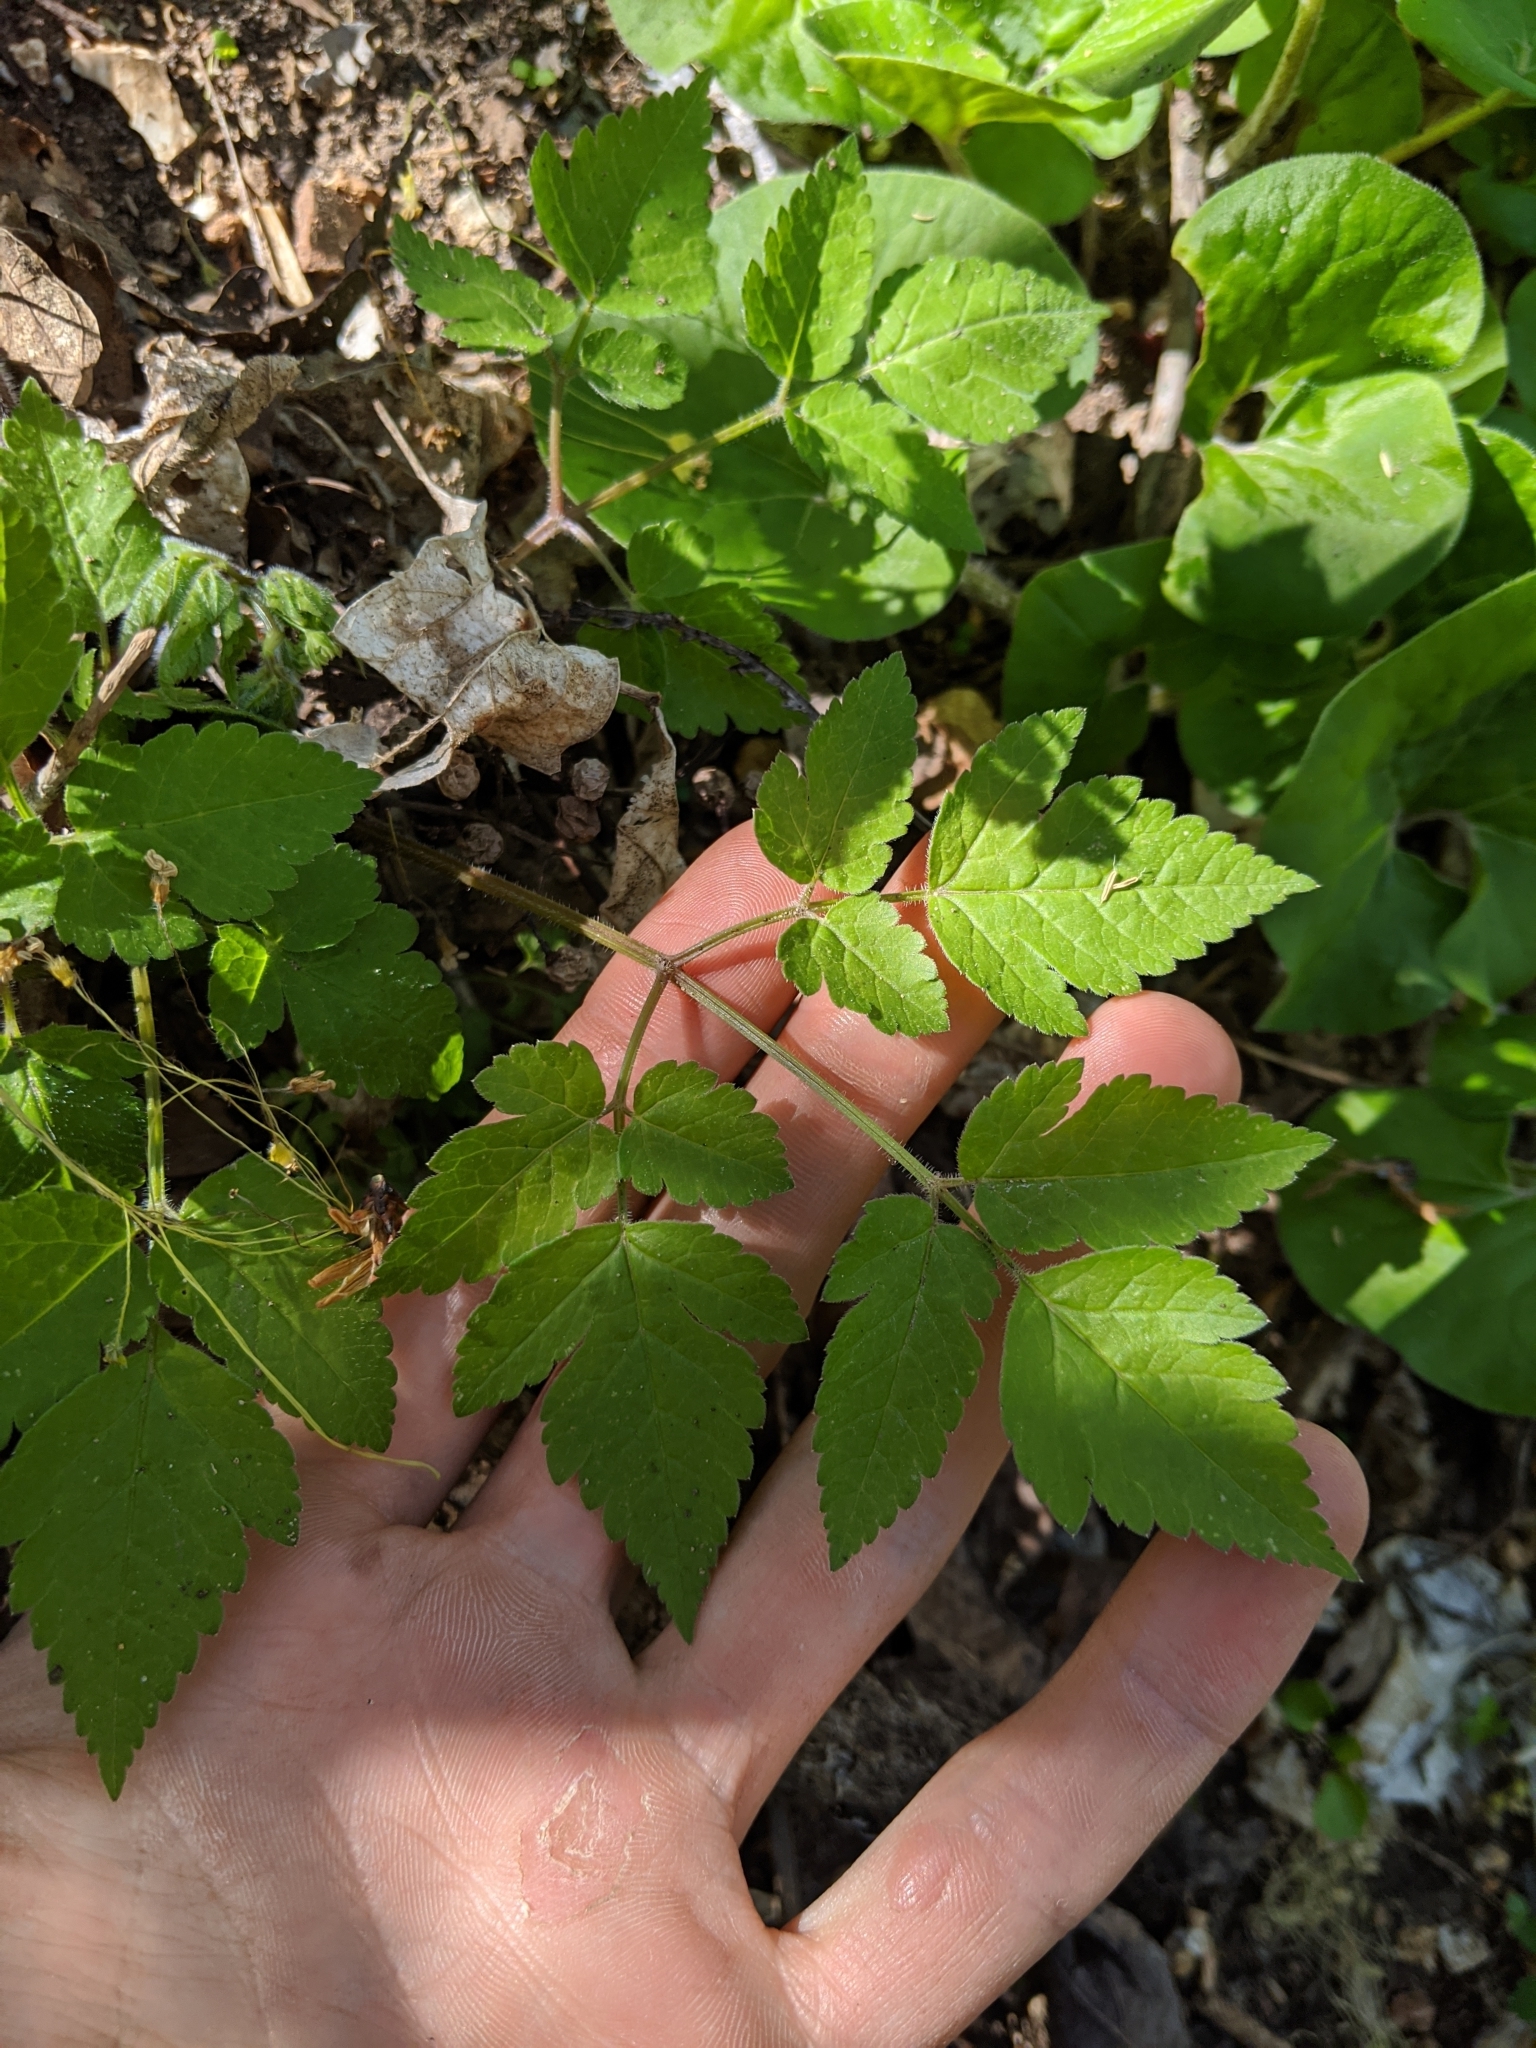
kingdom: Plantae
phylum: Tracheophyta
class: Magnoliopsida
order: Apiales
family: Apiaceae
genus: Osmorhiza
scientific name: Osmorhiza longistylis
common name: Smooth sweet cicely
